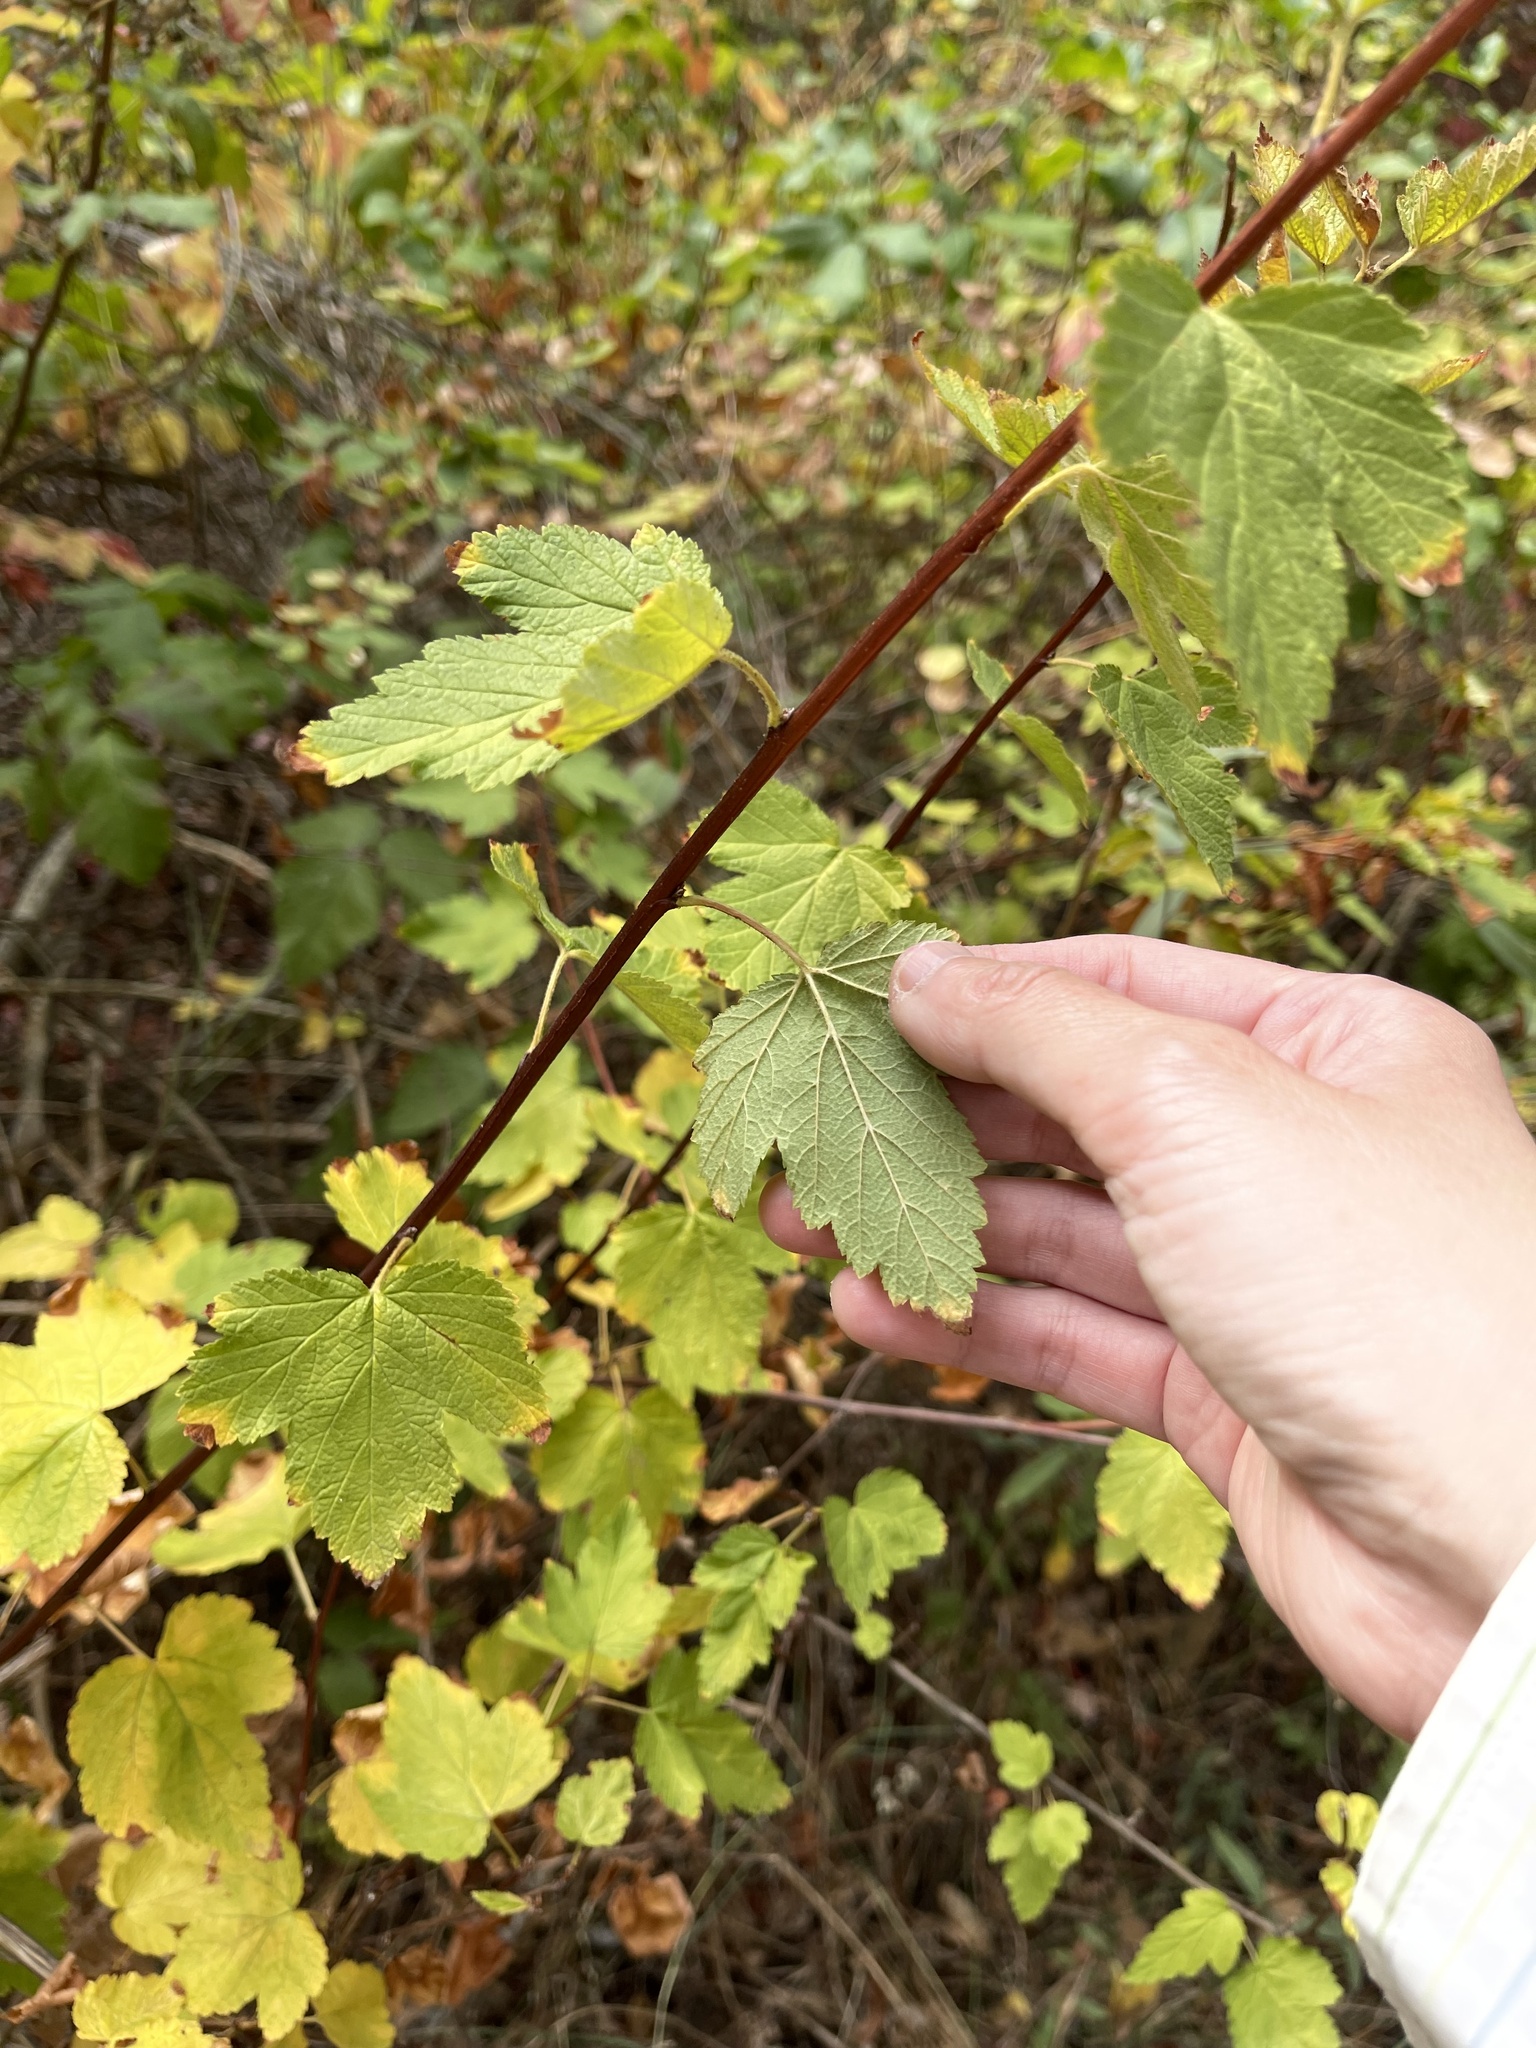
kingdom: Plantae
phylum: Tracheophyta
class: Magnoliopsida
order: Rosales
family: Rosaceae
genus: Physocarpus
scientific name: Physocarpus capitatus
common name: Pacific ninebark
